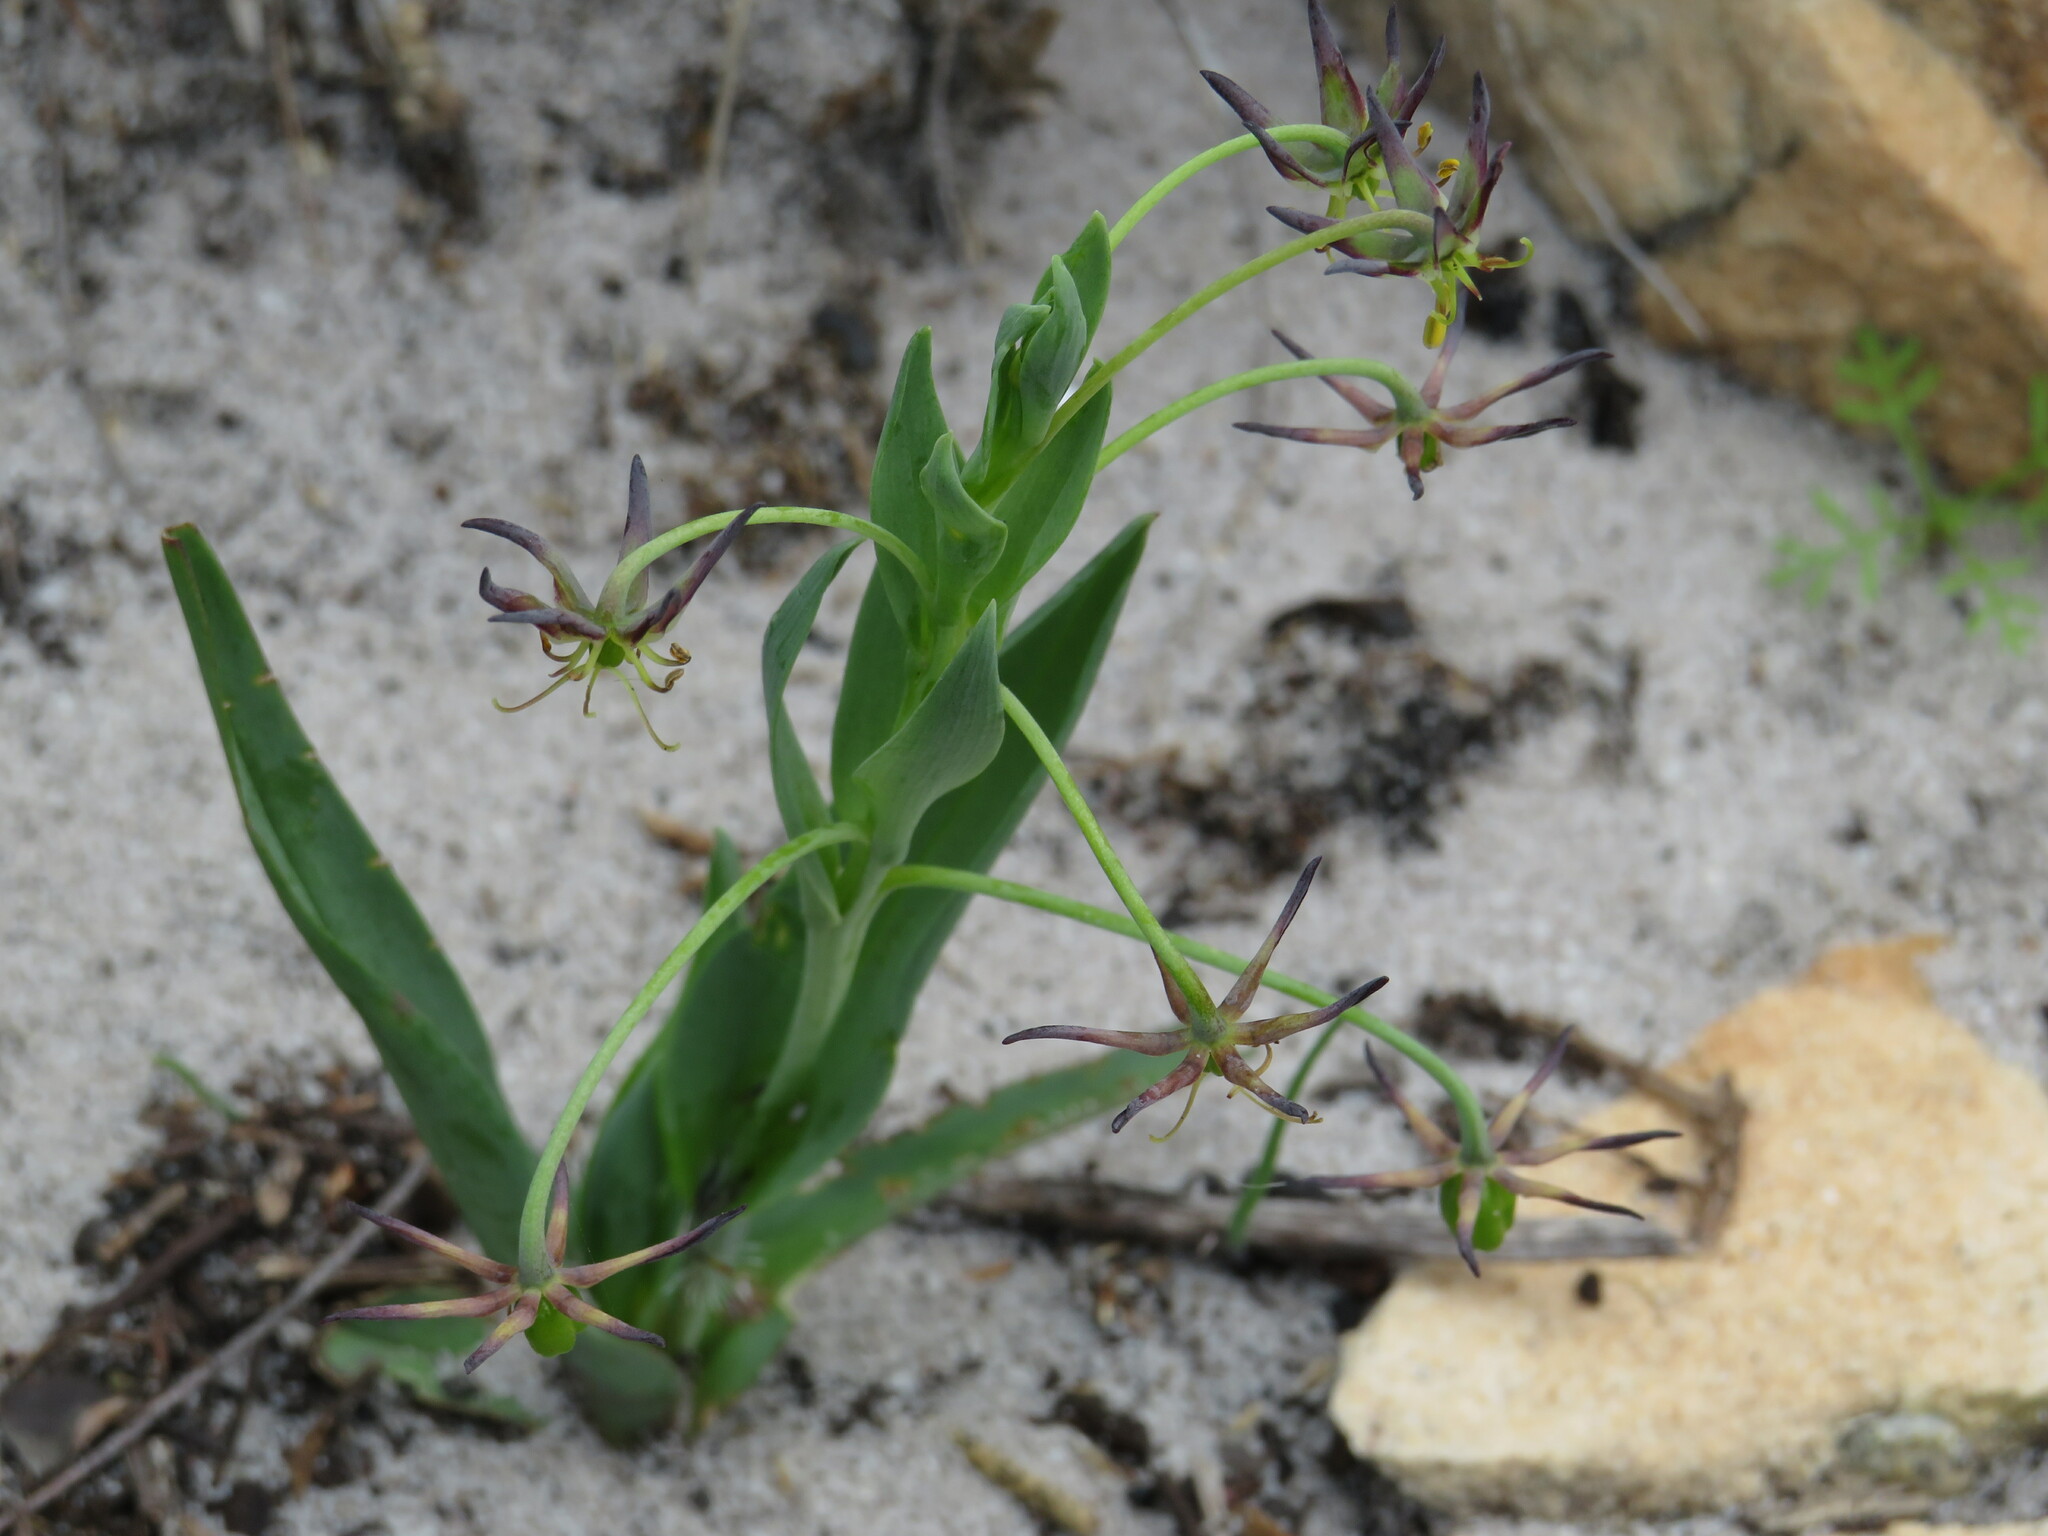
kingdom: Plantae
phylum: Tracheophyta
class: Liliopsida
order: Liliales
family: Colchicaceae
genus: Ornithoglossum
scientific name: Ornithoglossum viride
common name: Cape poison-onion
